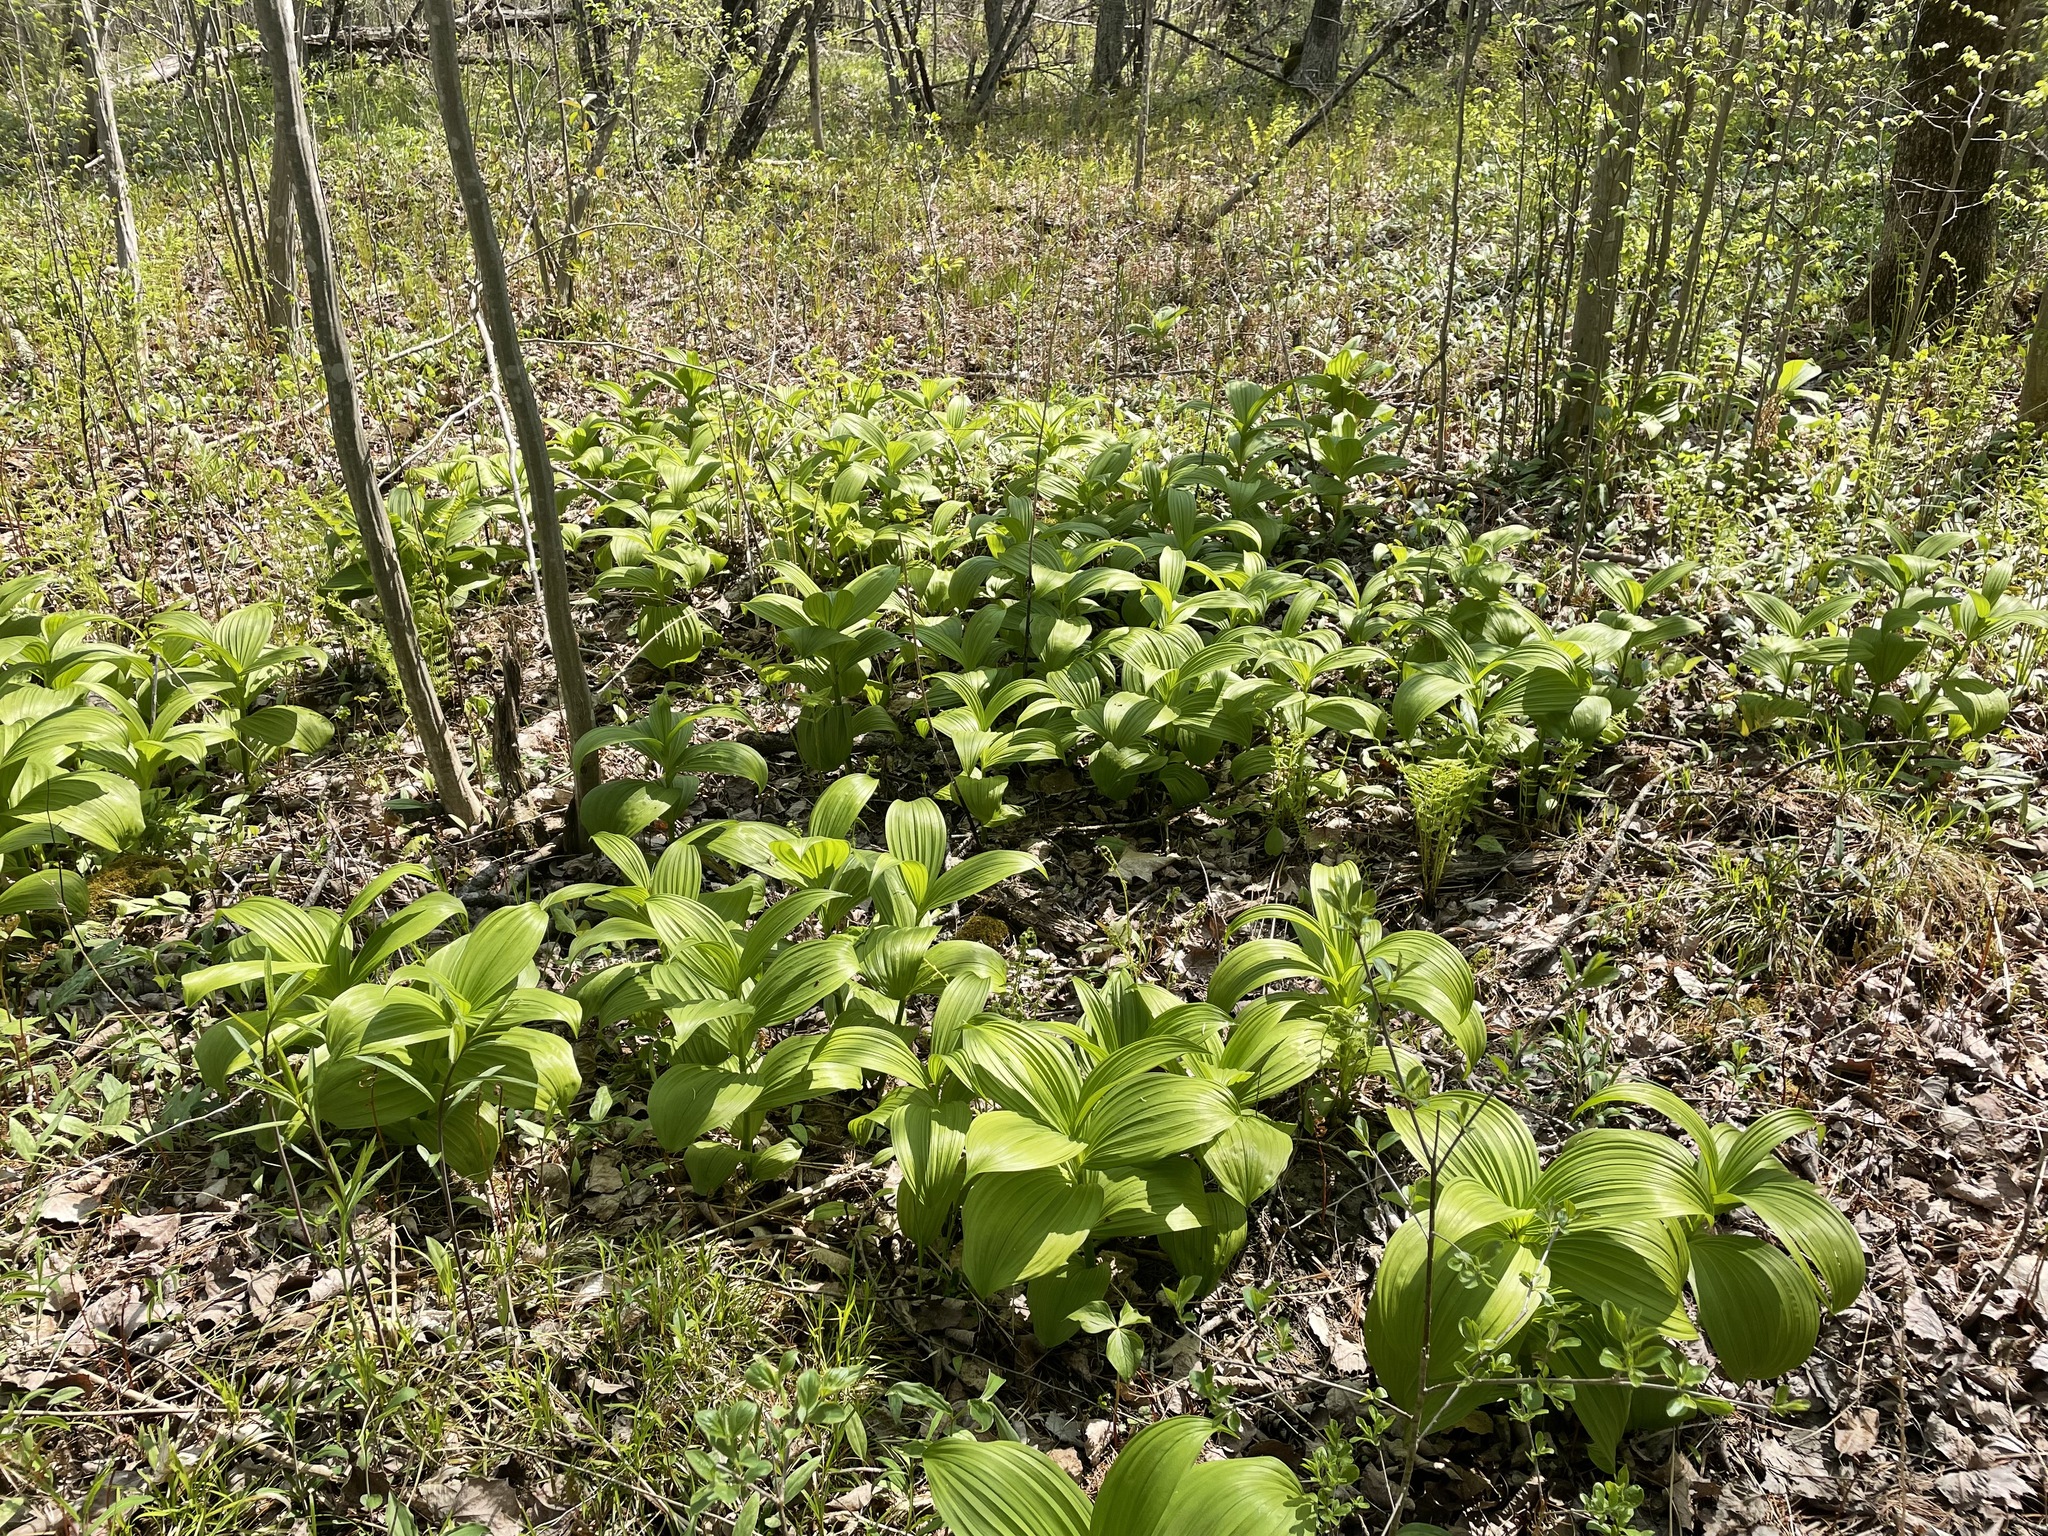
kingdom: Plantae
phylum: Tracheophyta
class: Liliopsida
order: Liliales
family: Melanthiaceae
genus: Veratrum
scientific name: Veratrum viride
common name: American false hellebore
